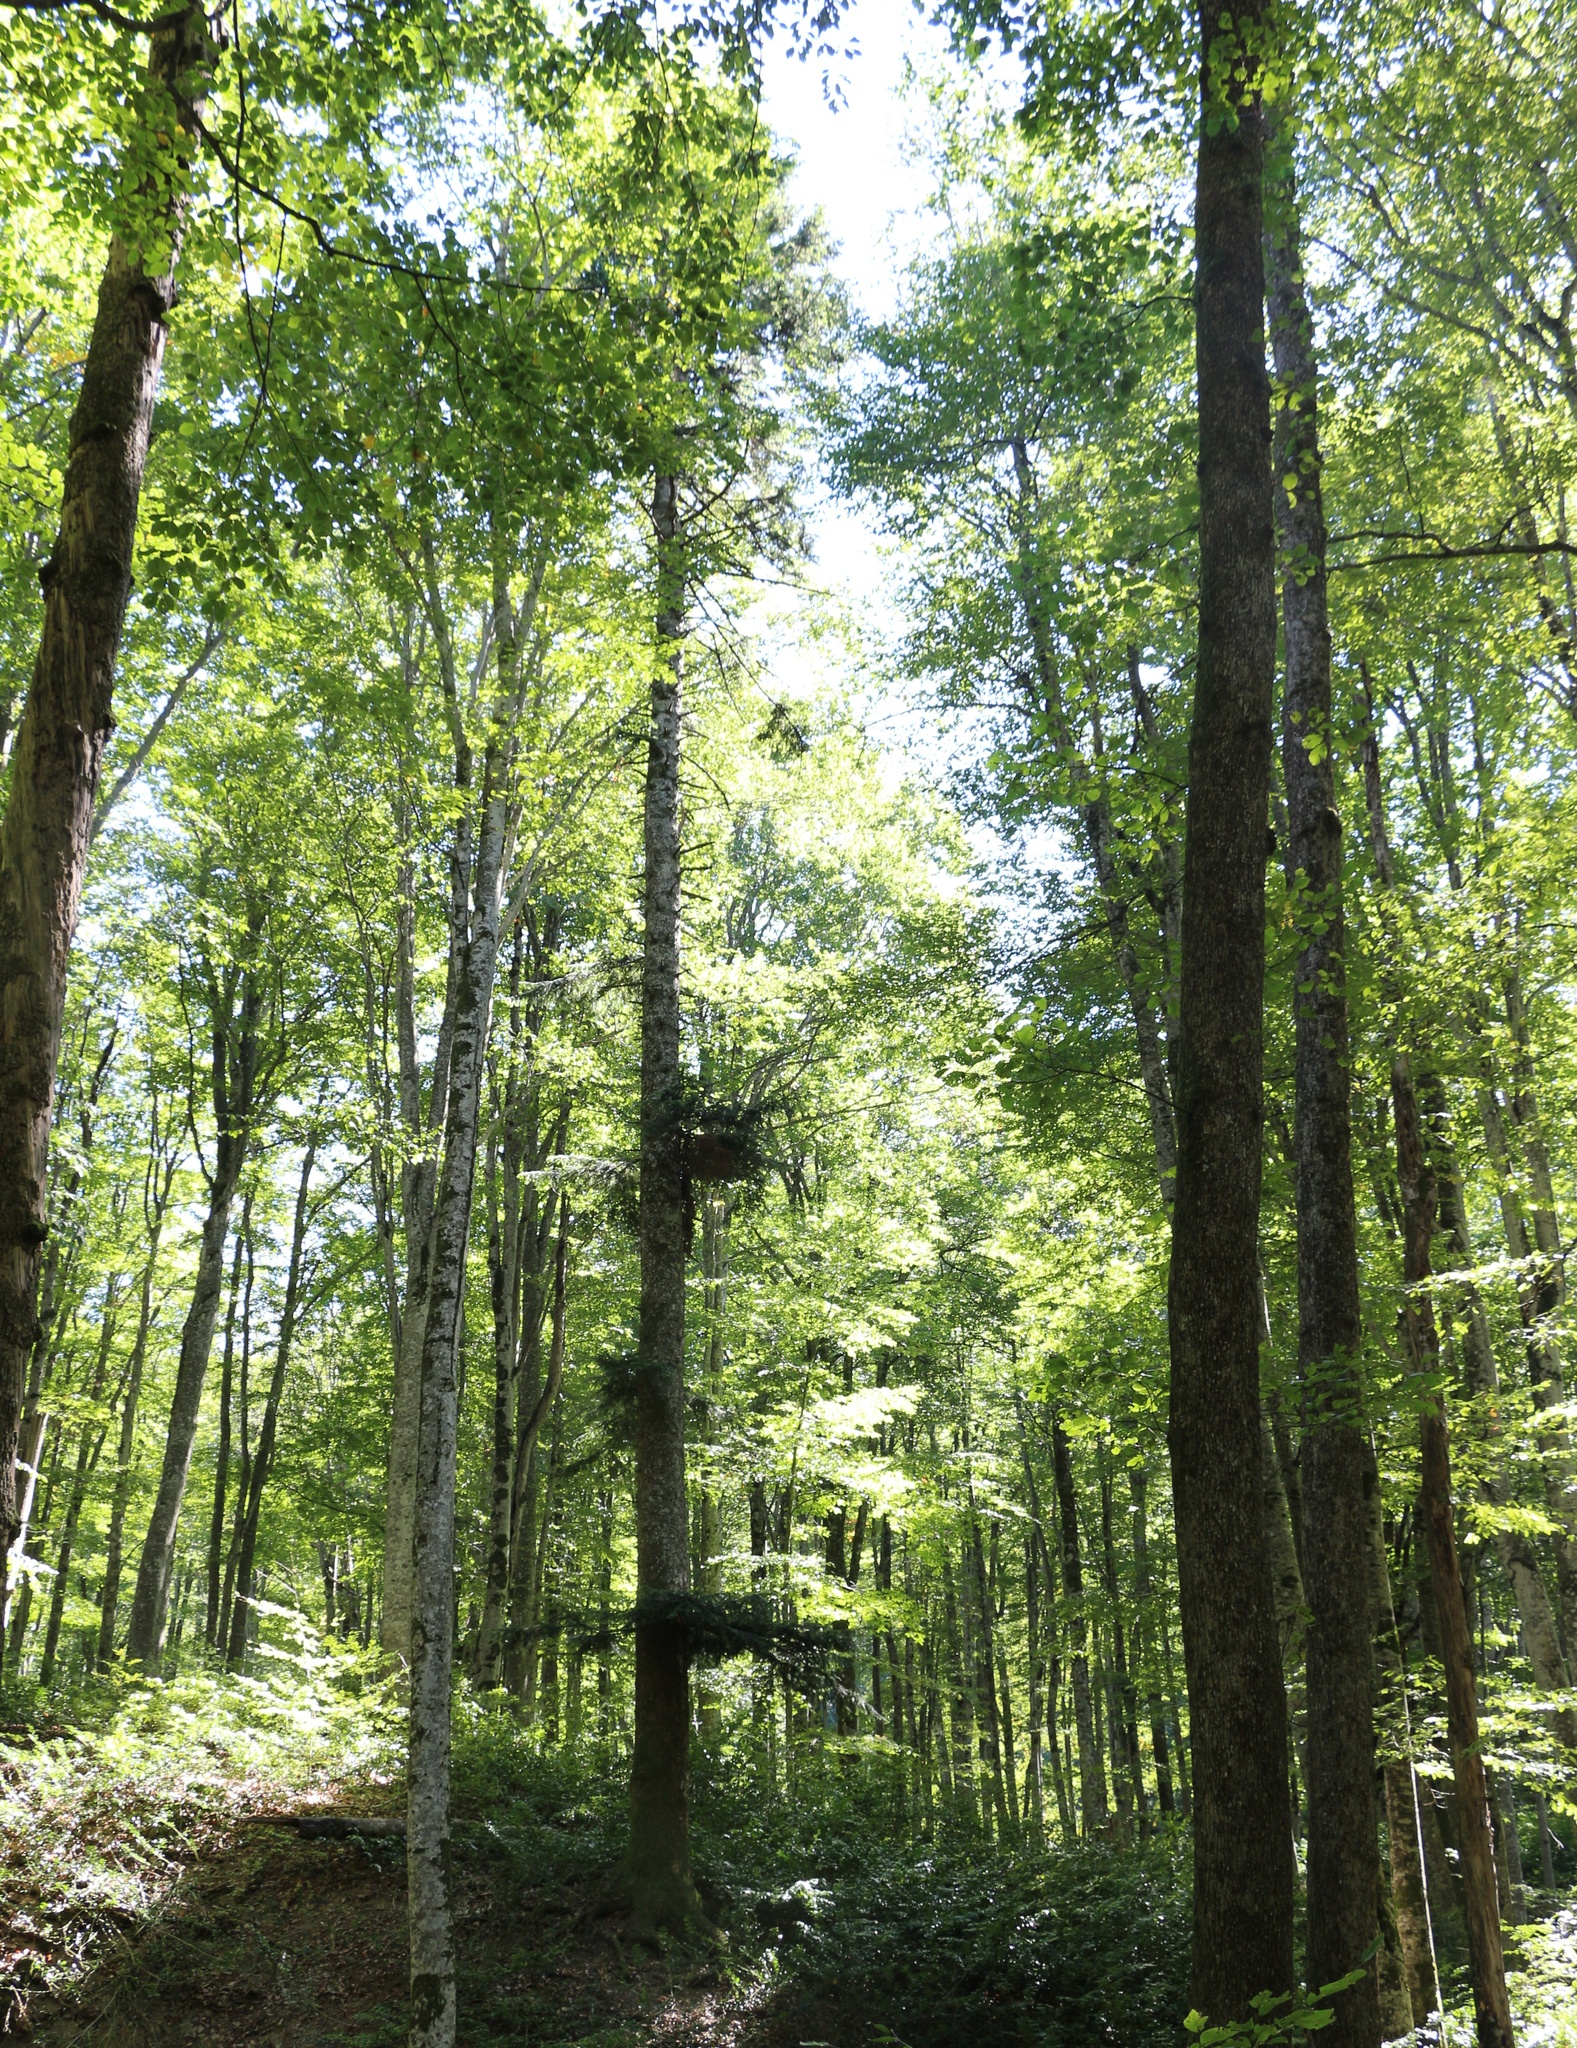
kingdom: Plantae
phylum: Tracheophyta
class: Pinopsida
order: Pinales
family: Pinaceae
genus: Abies
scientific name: Abies nordmanniana
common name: Caucasian fir
